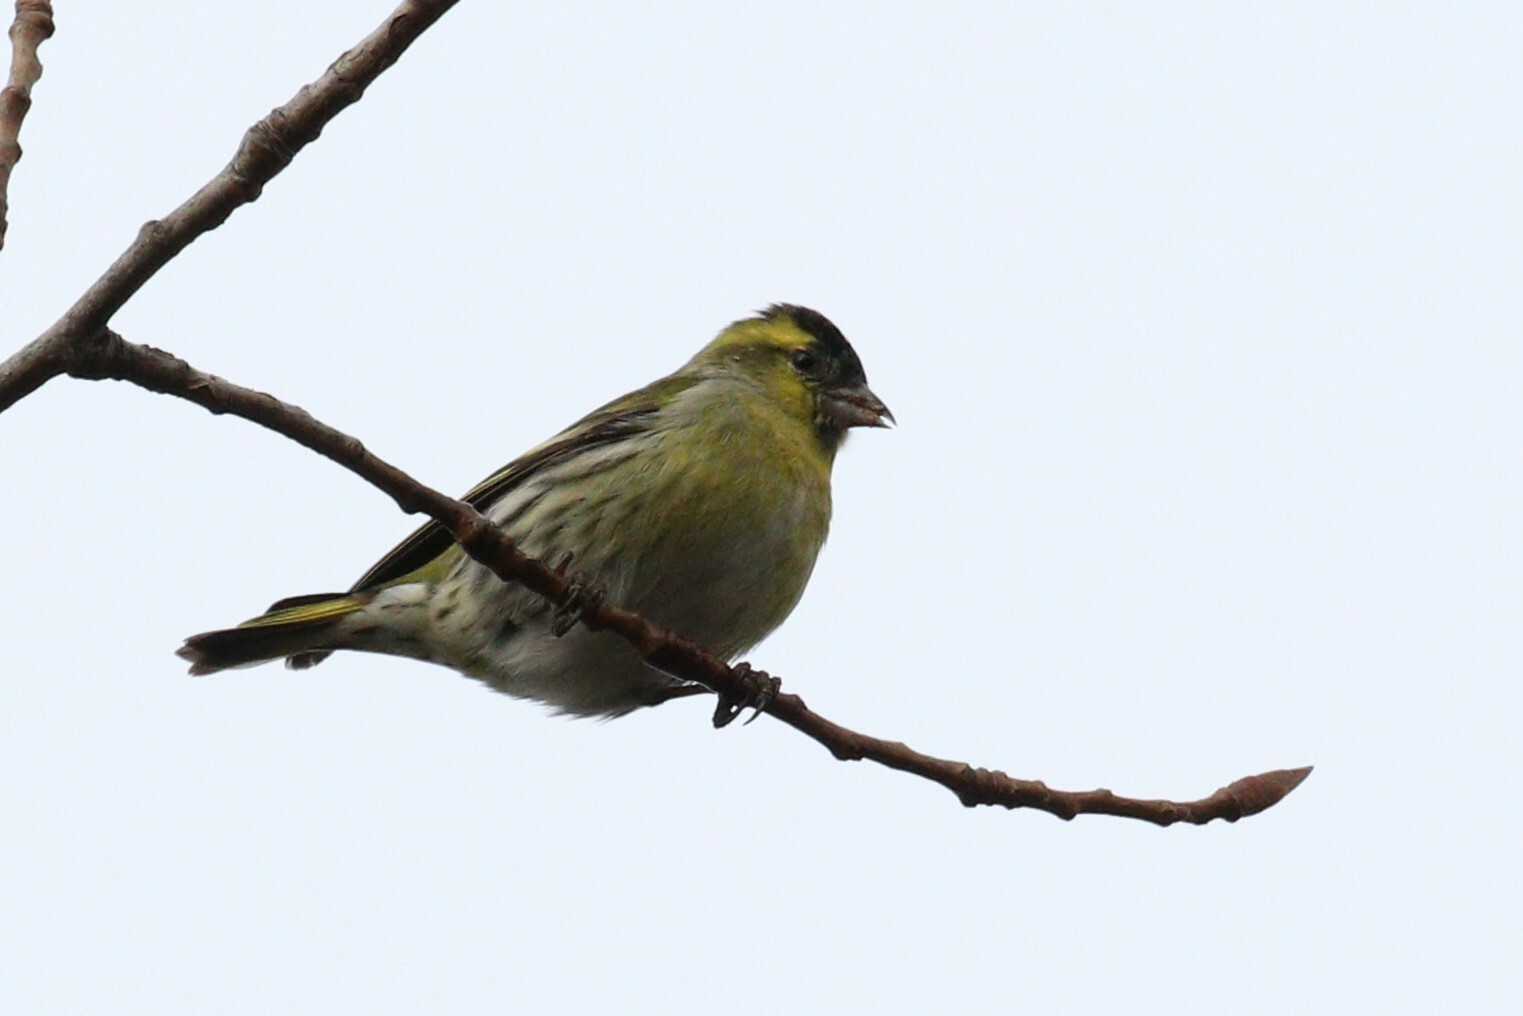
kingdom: Animalia
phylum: Chordata
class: Aves
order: Passeriformes
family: Fringillidae
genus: Spinus
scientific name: Spinus spinus
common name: Eurasian siskin
